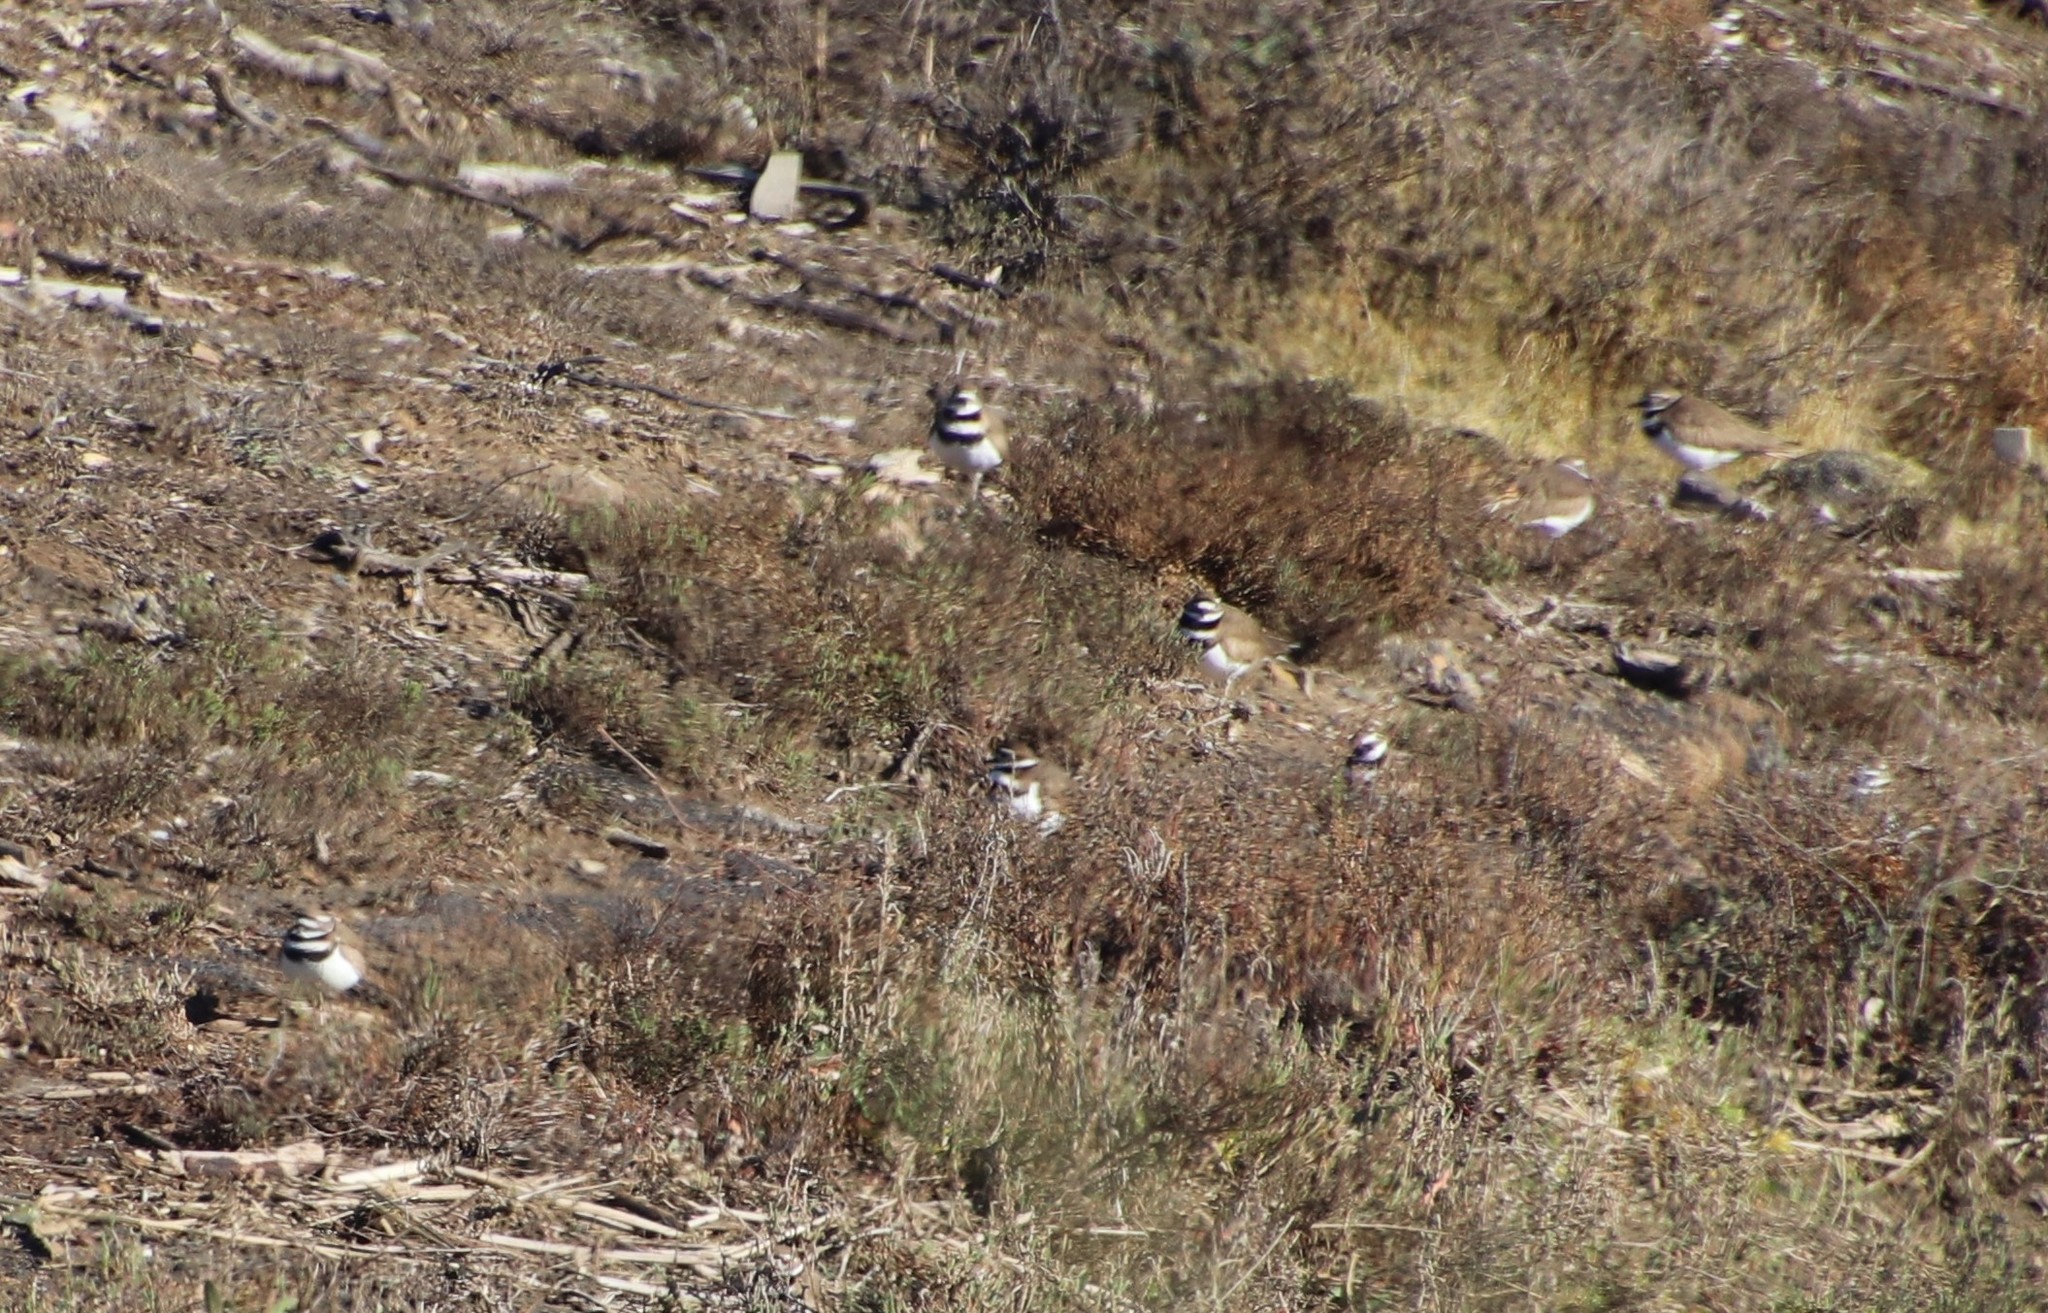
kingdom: Animalia
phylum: Chordata
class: Aves
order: Charadriiformes
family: Charadriidae
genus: Charadrius
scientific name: Charadrius vociferus
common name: Killdeer
